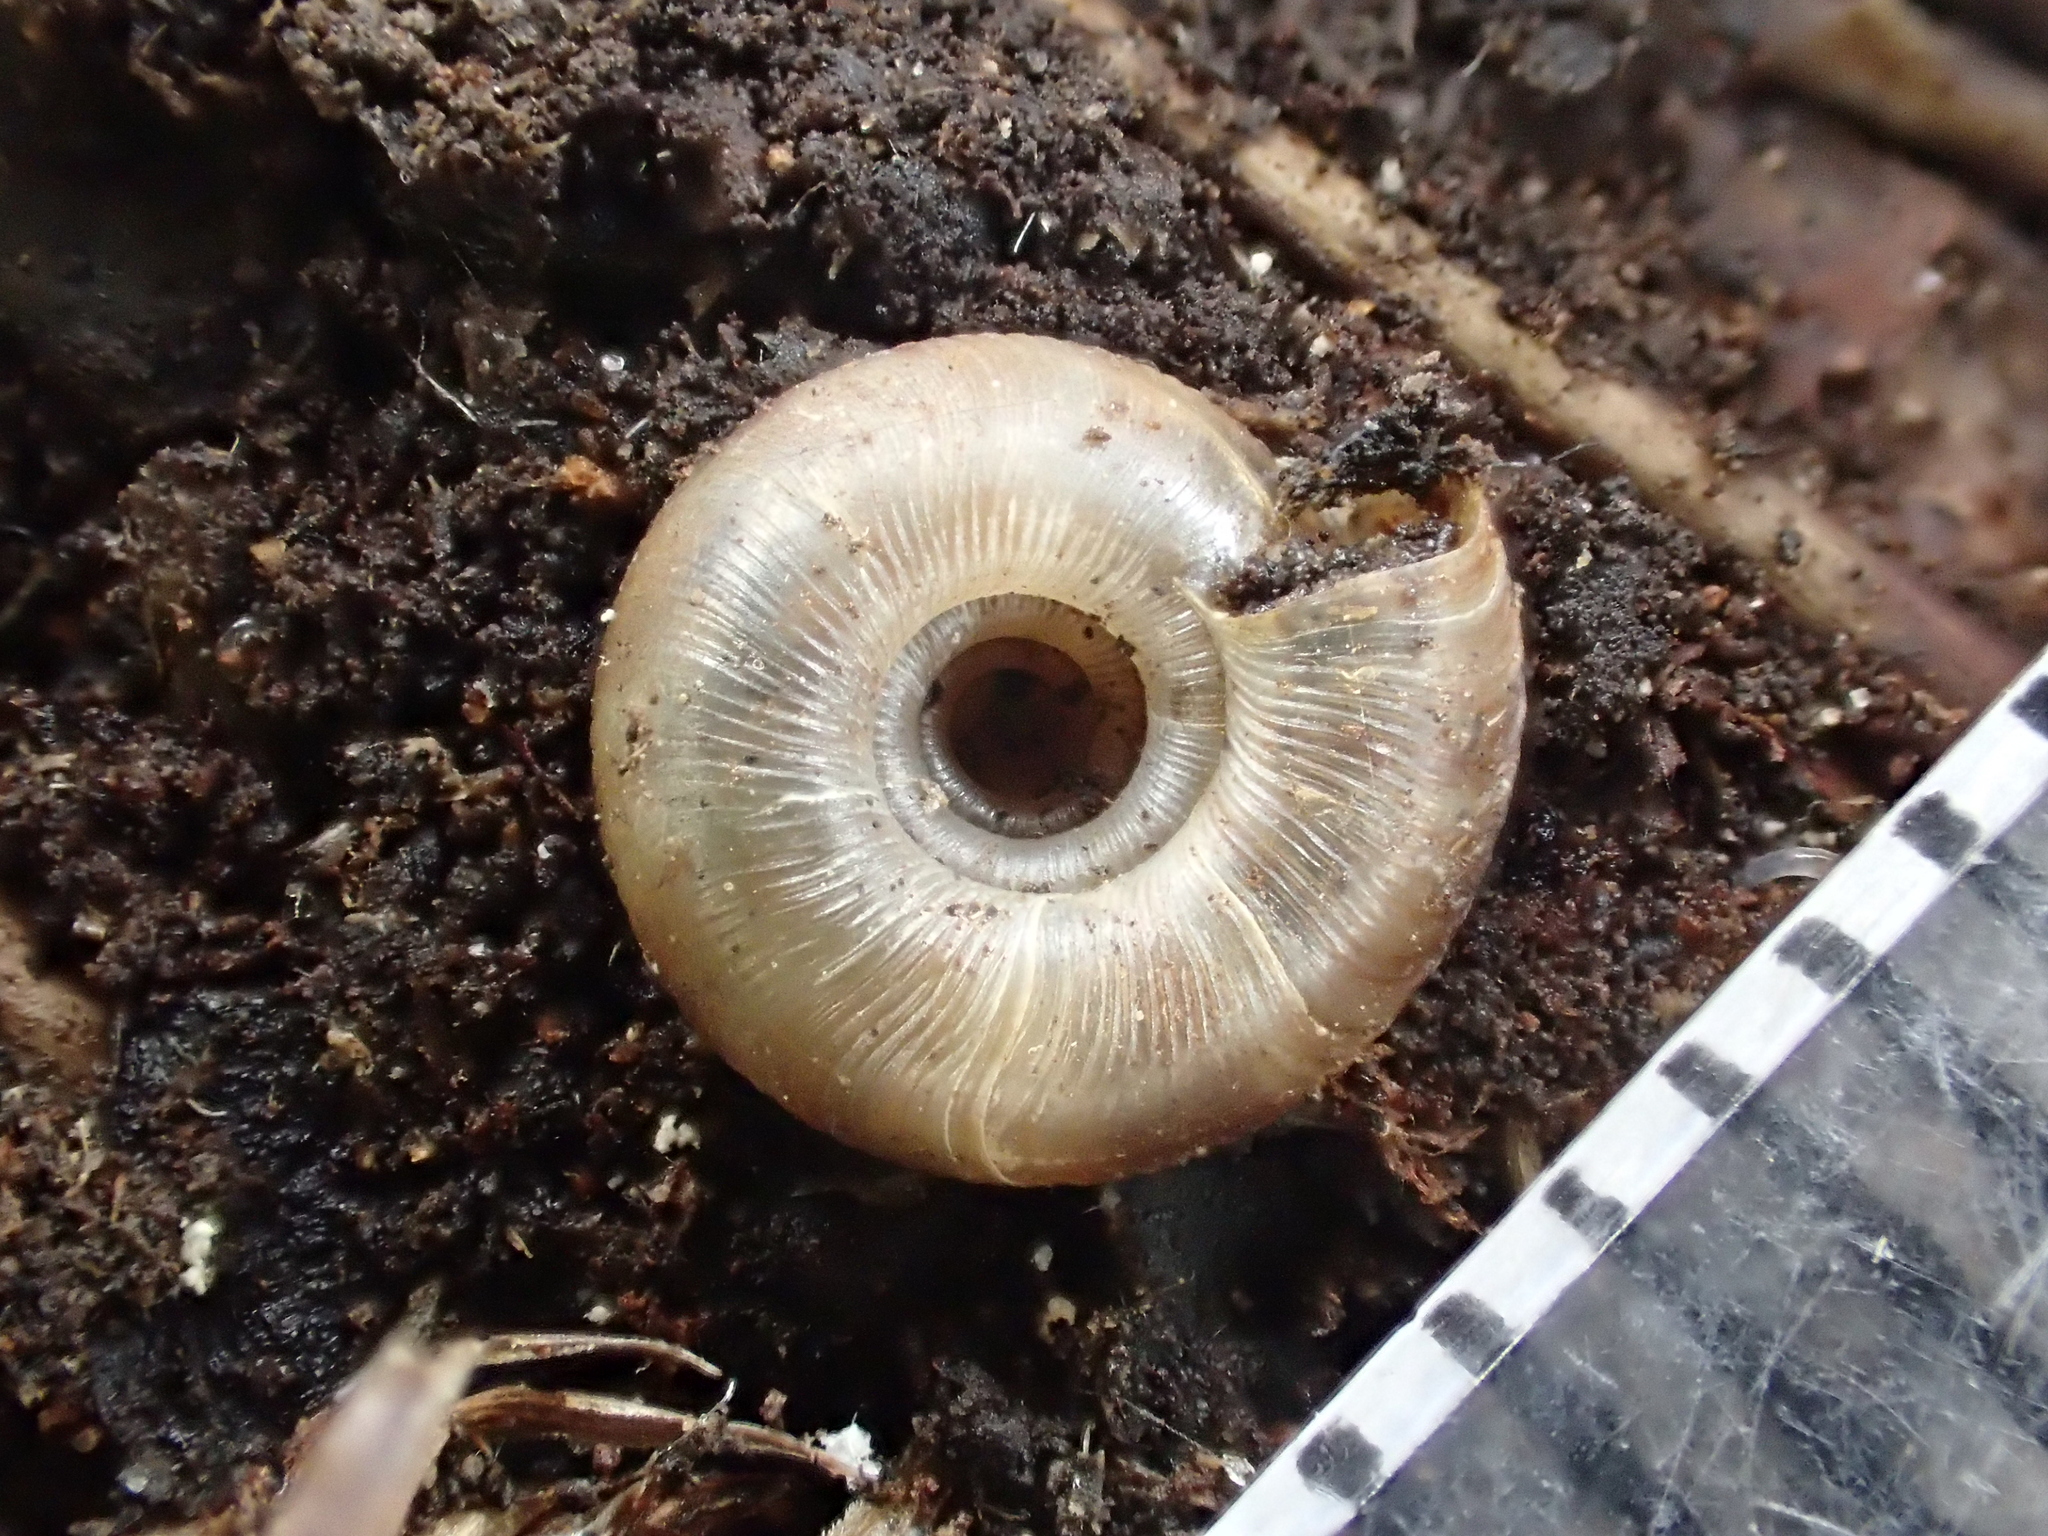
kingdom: Animalia
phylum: Mollusca
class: Gastropoda
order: Stylommatophora
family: Discidae
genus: Discus
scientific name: Discus rotundatus
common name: Rounded snail
